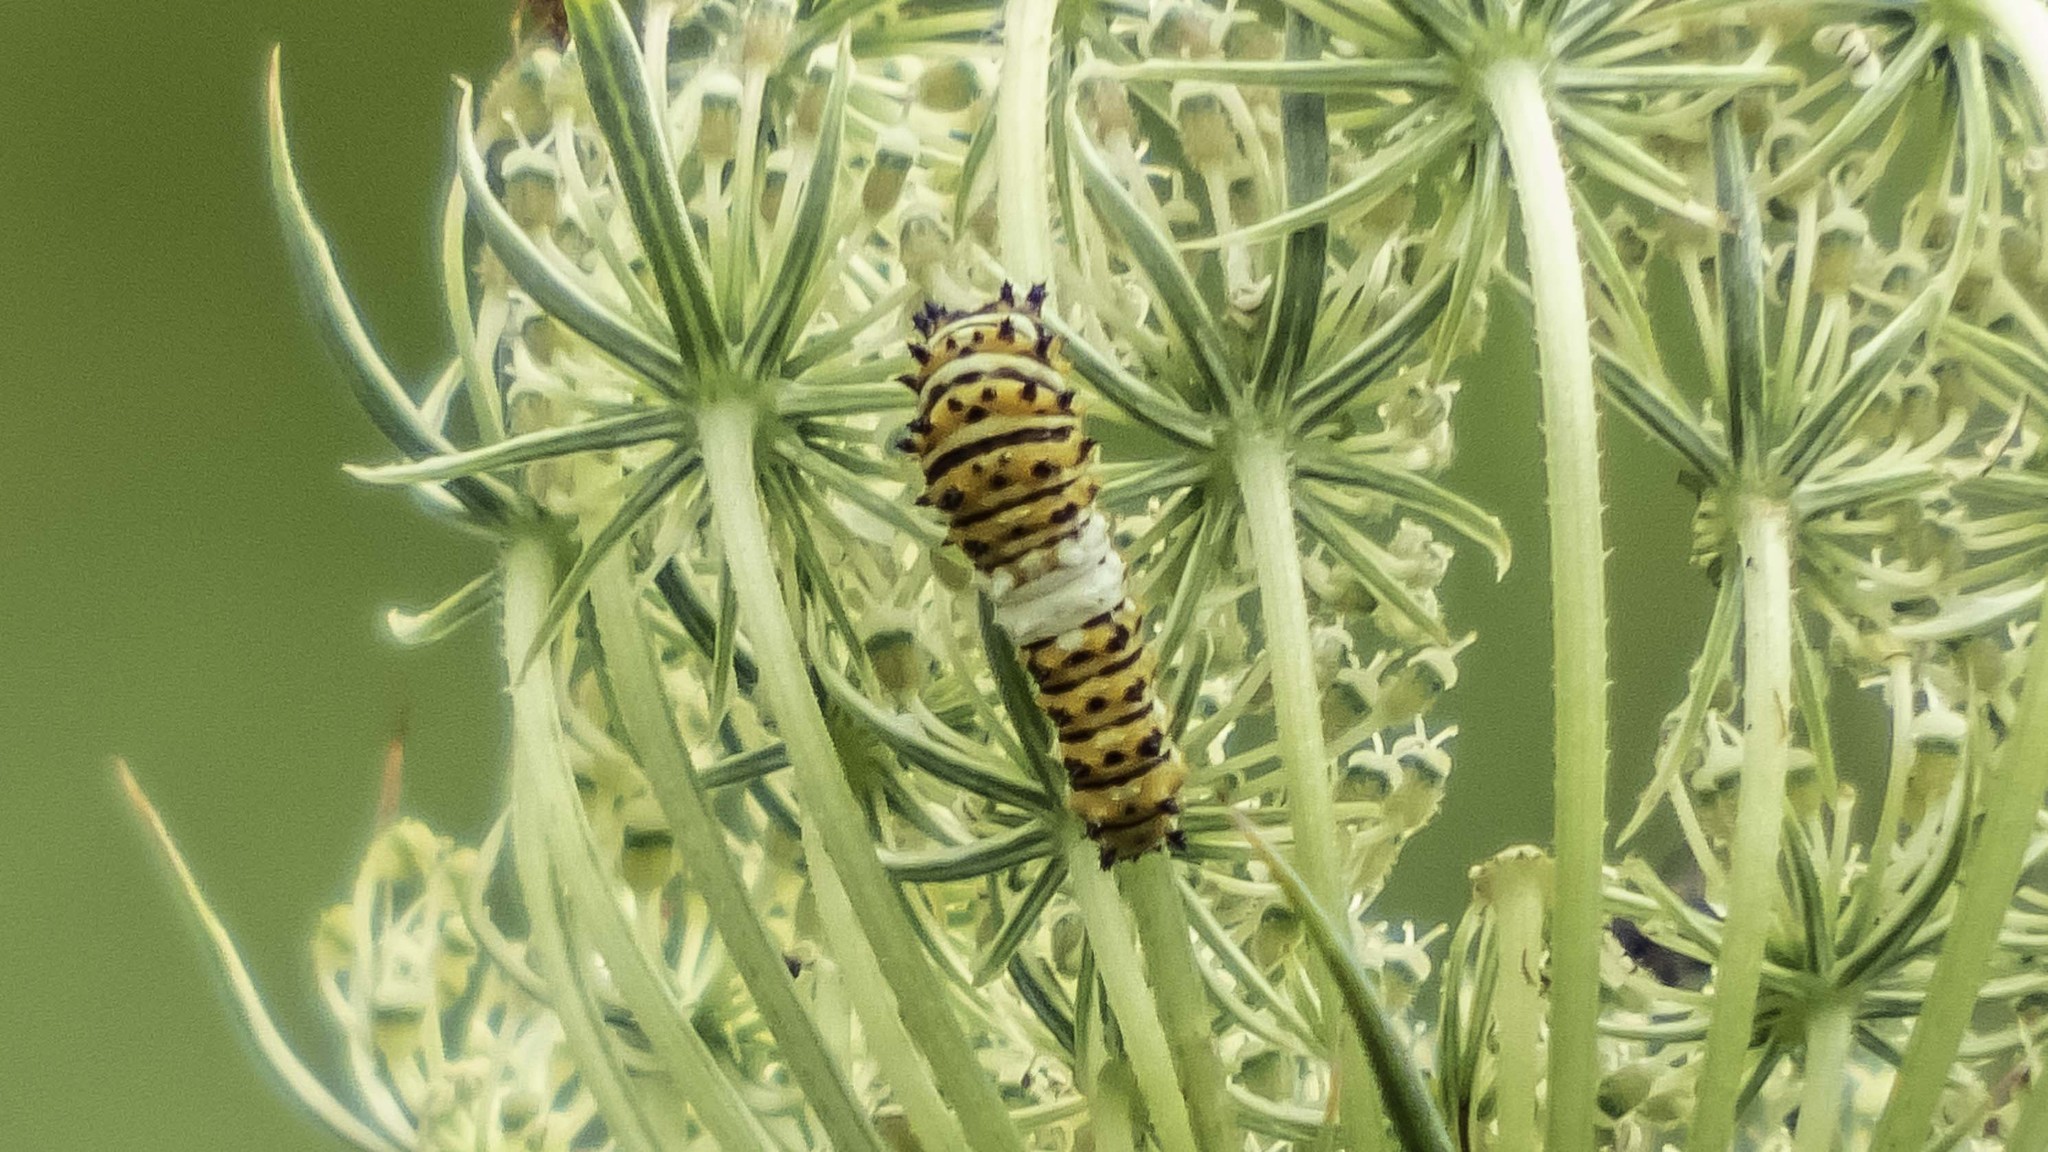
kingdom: Animalia
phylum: Arthropoda
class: Insecta
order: Lepidoptera
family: Papilionidae
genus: Papilio
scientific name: Papilio polyxenes
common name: Black swallowtail
